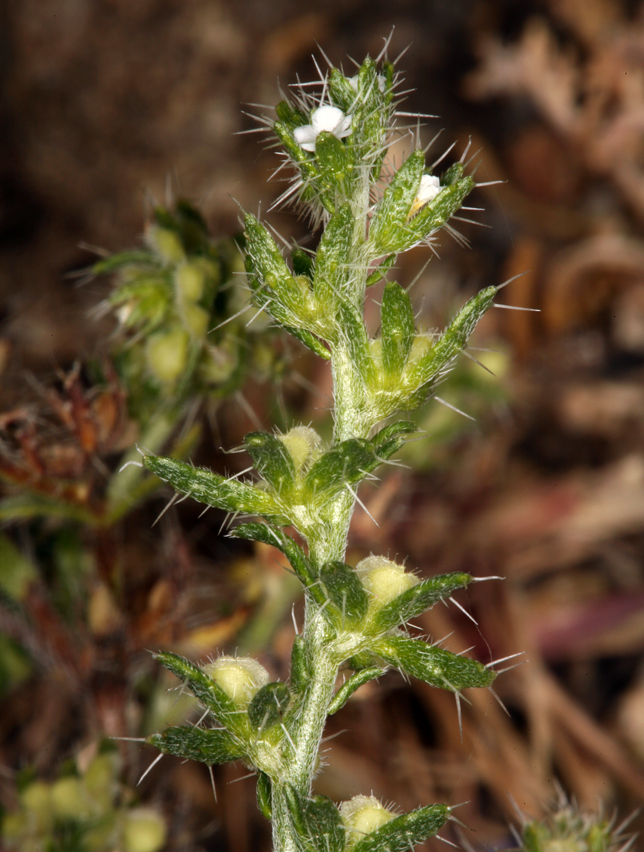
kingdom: Plantae
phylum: Tracheophyta
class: Magnoliopsida
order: Boraginales
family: Boraginaceae
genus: Pectocarya
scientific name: Pectocarya setosa
